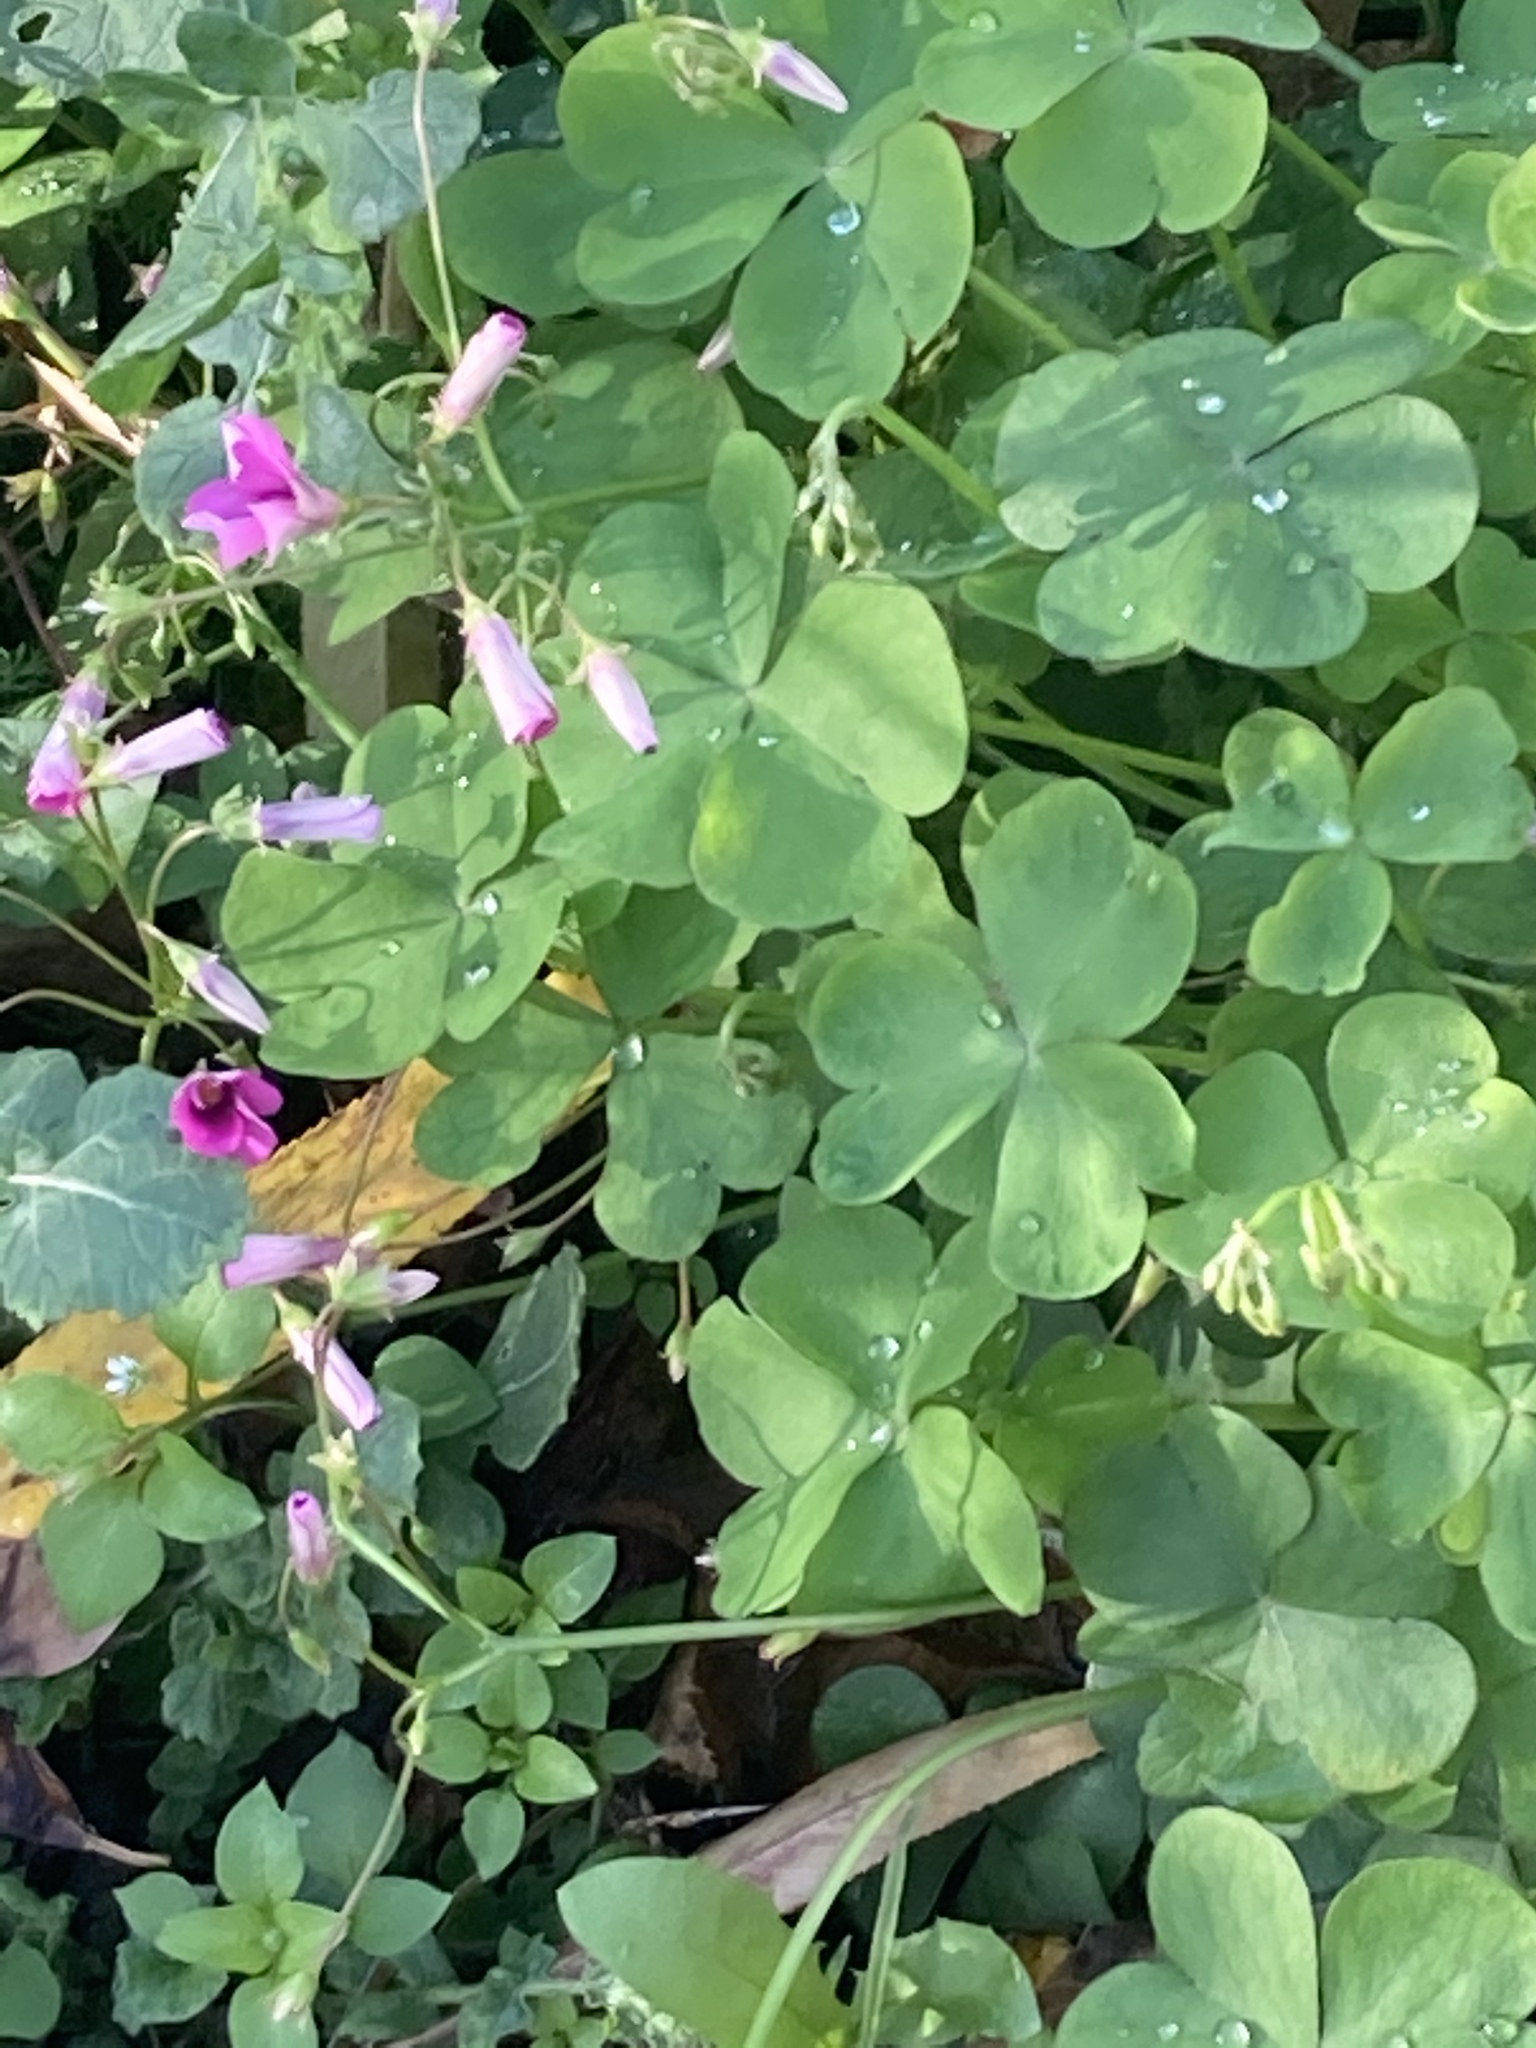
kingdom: Plantae
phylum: Tracheophyta
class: Magnoliopsida
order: Oxalidales
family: Oxalidaceae
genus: Oxalis
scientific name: Oxalis articulata
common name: Pink-sorrel
